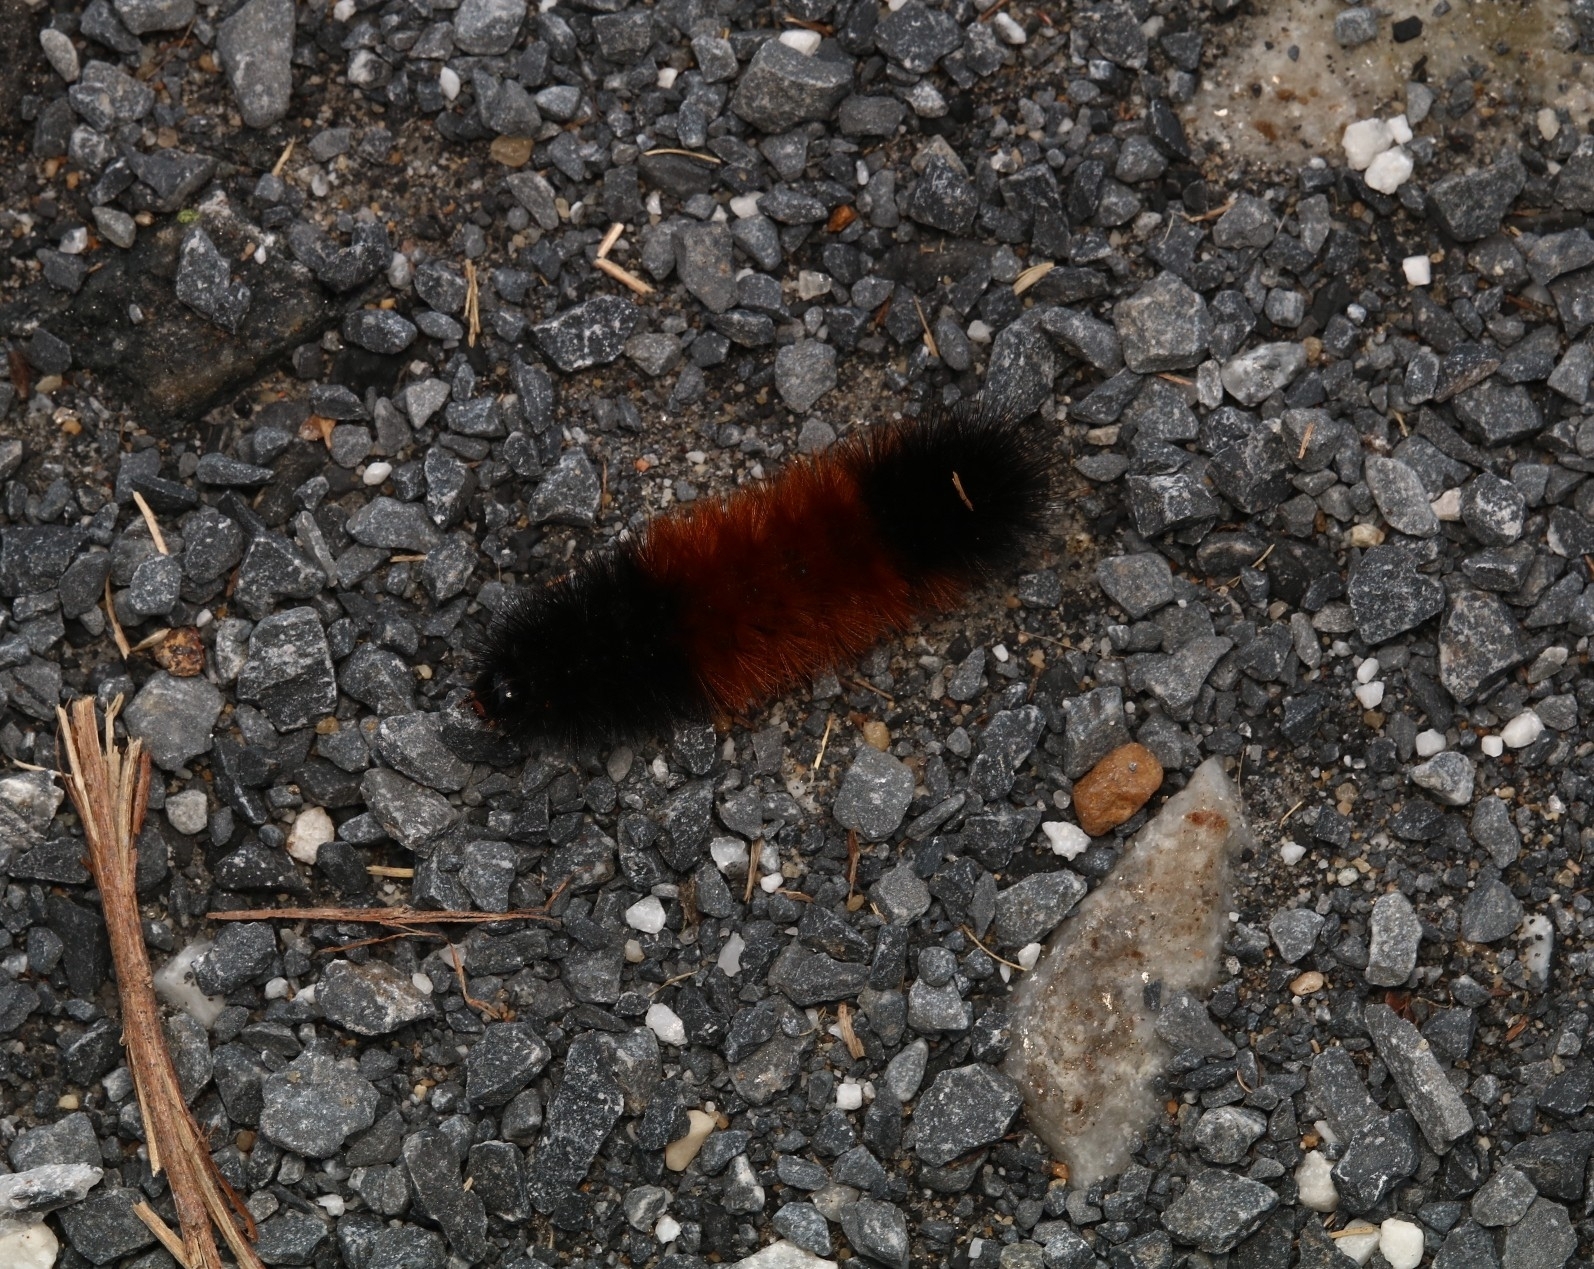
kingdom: Animalia
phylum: Arthropoda
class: Insecta
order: Lepidoptera
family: Erebidae
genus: Pyrrharctia
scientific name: Pyrrharctia isabella
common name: Isabella tiger moth
